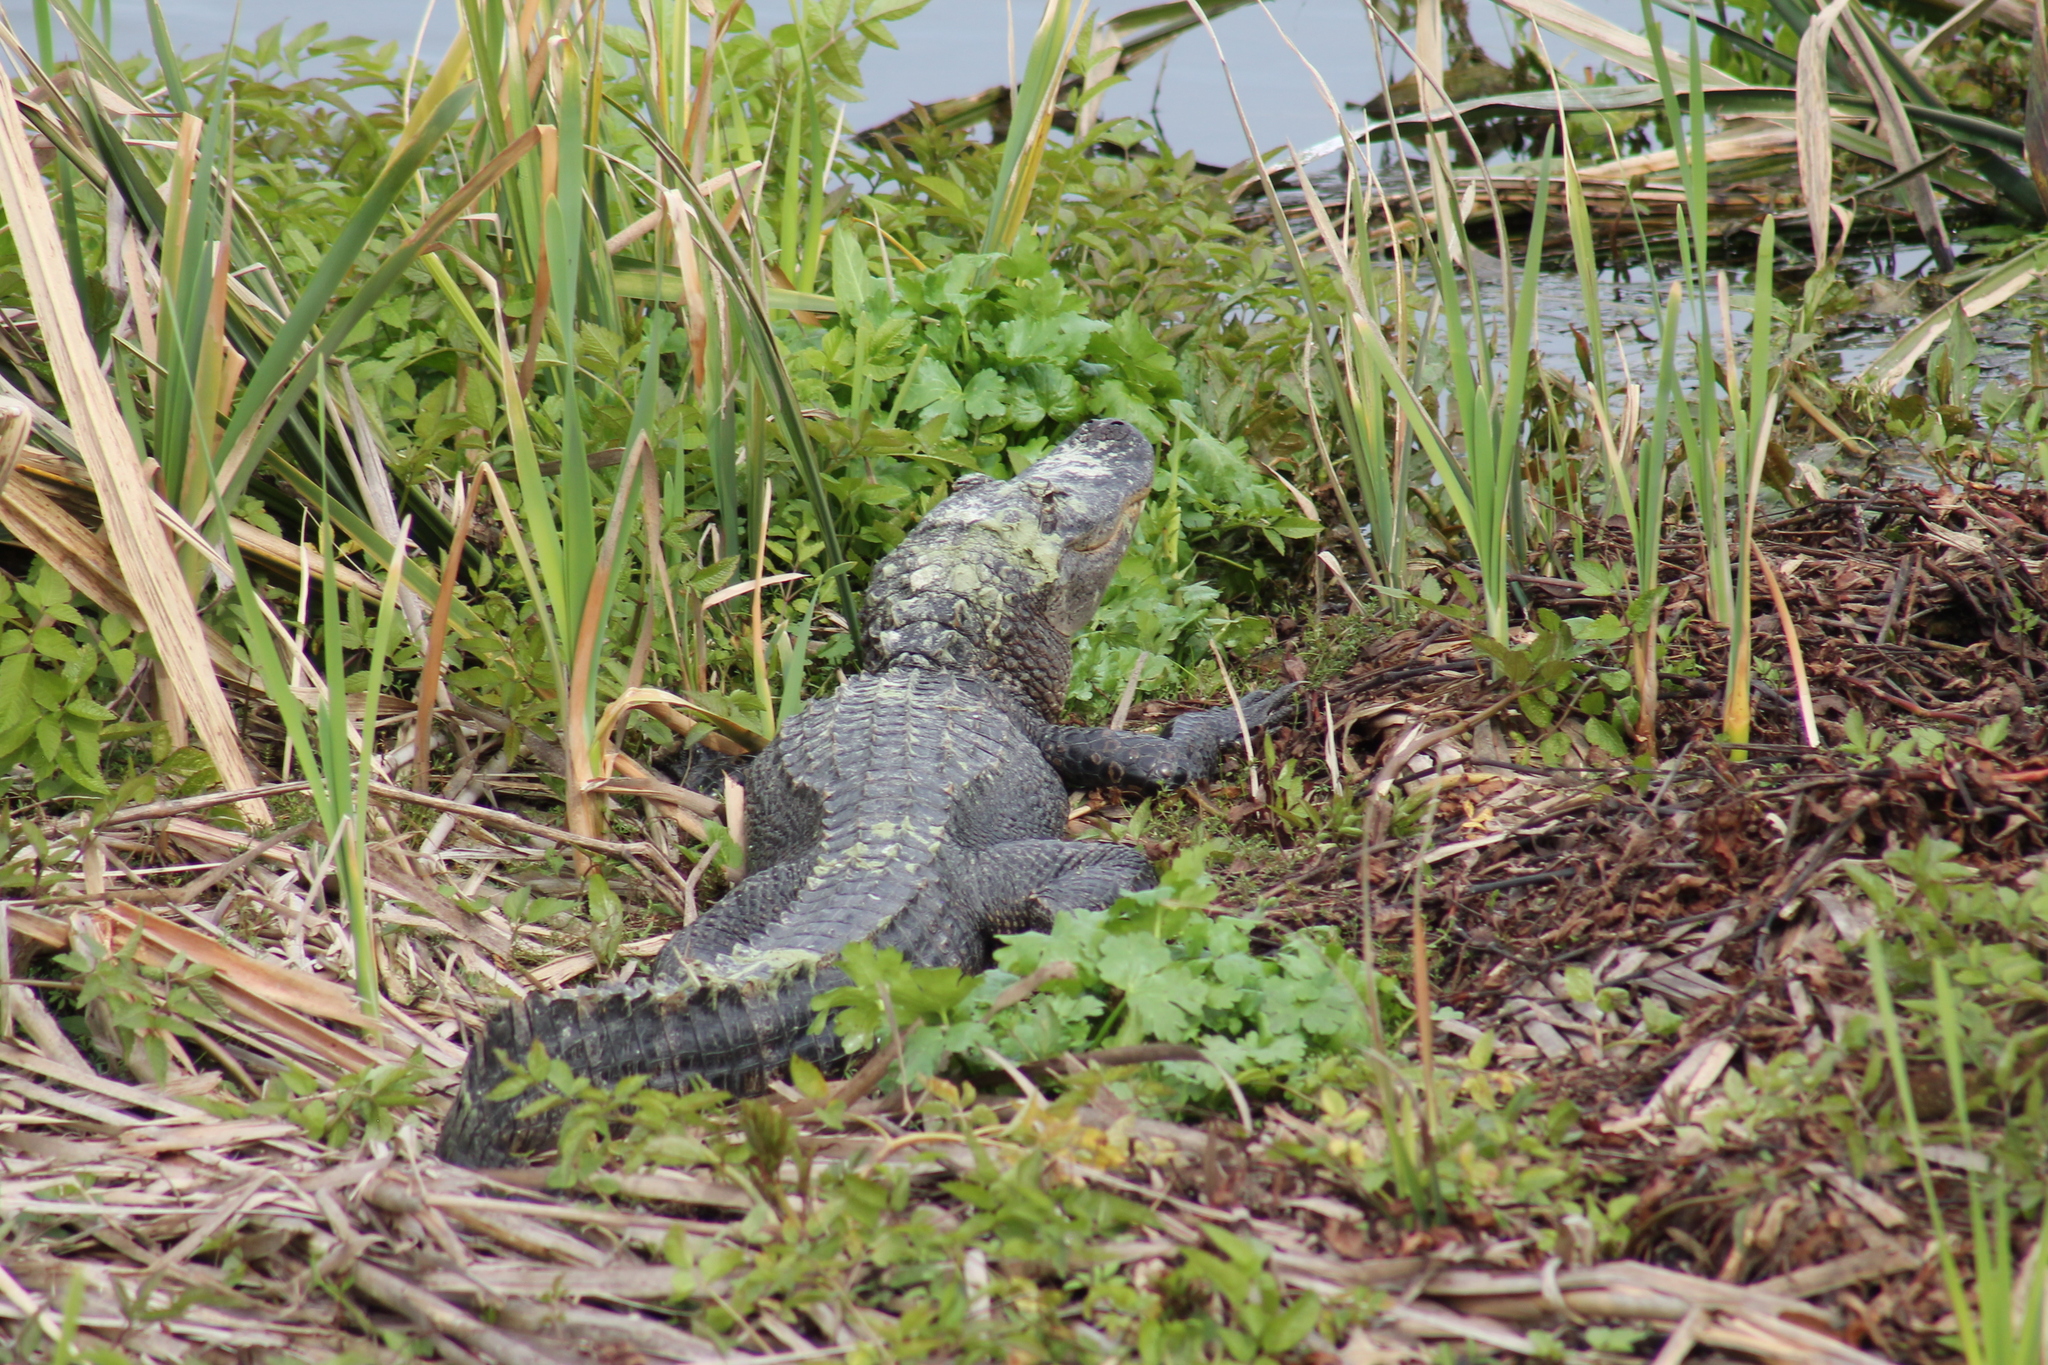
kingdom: Animalia
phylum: Chordata
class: Crocodylia
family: Alligatoridae
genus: Alligator
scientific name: Alligator mississippiensis
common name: American alligator
